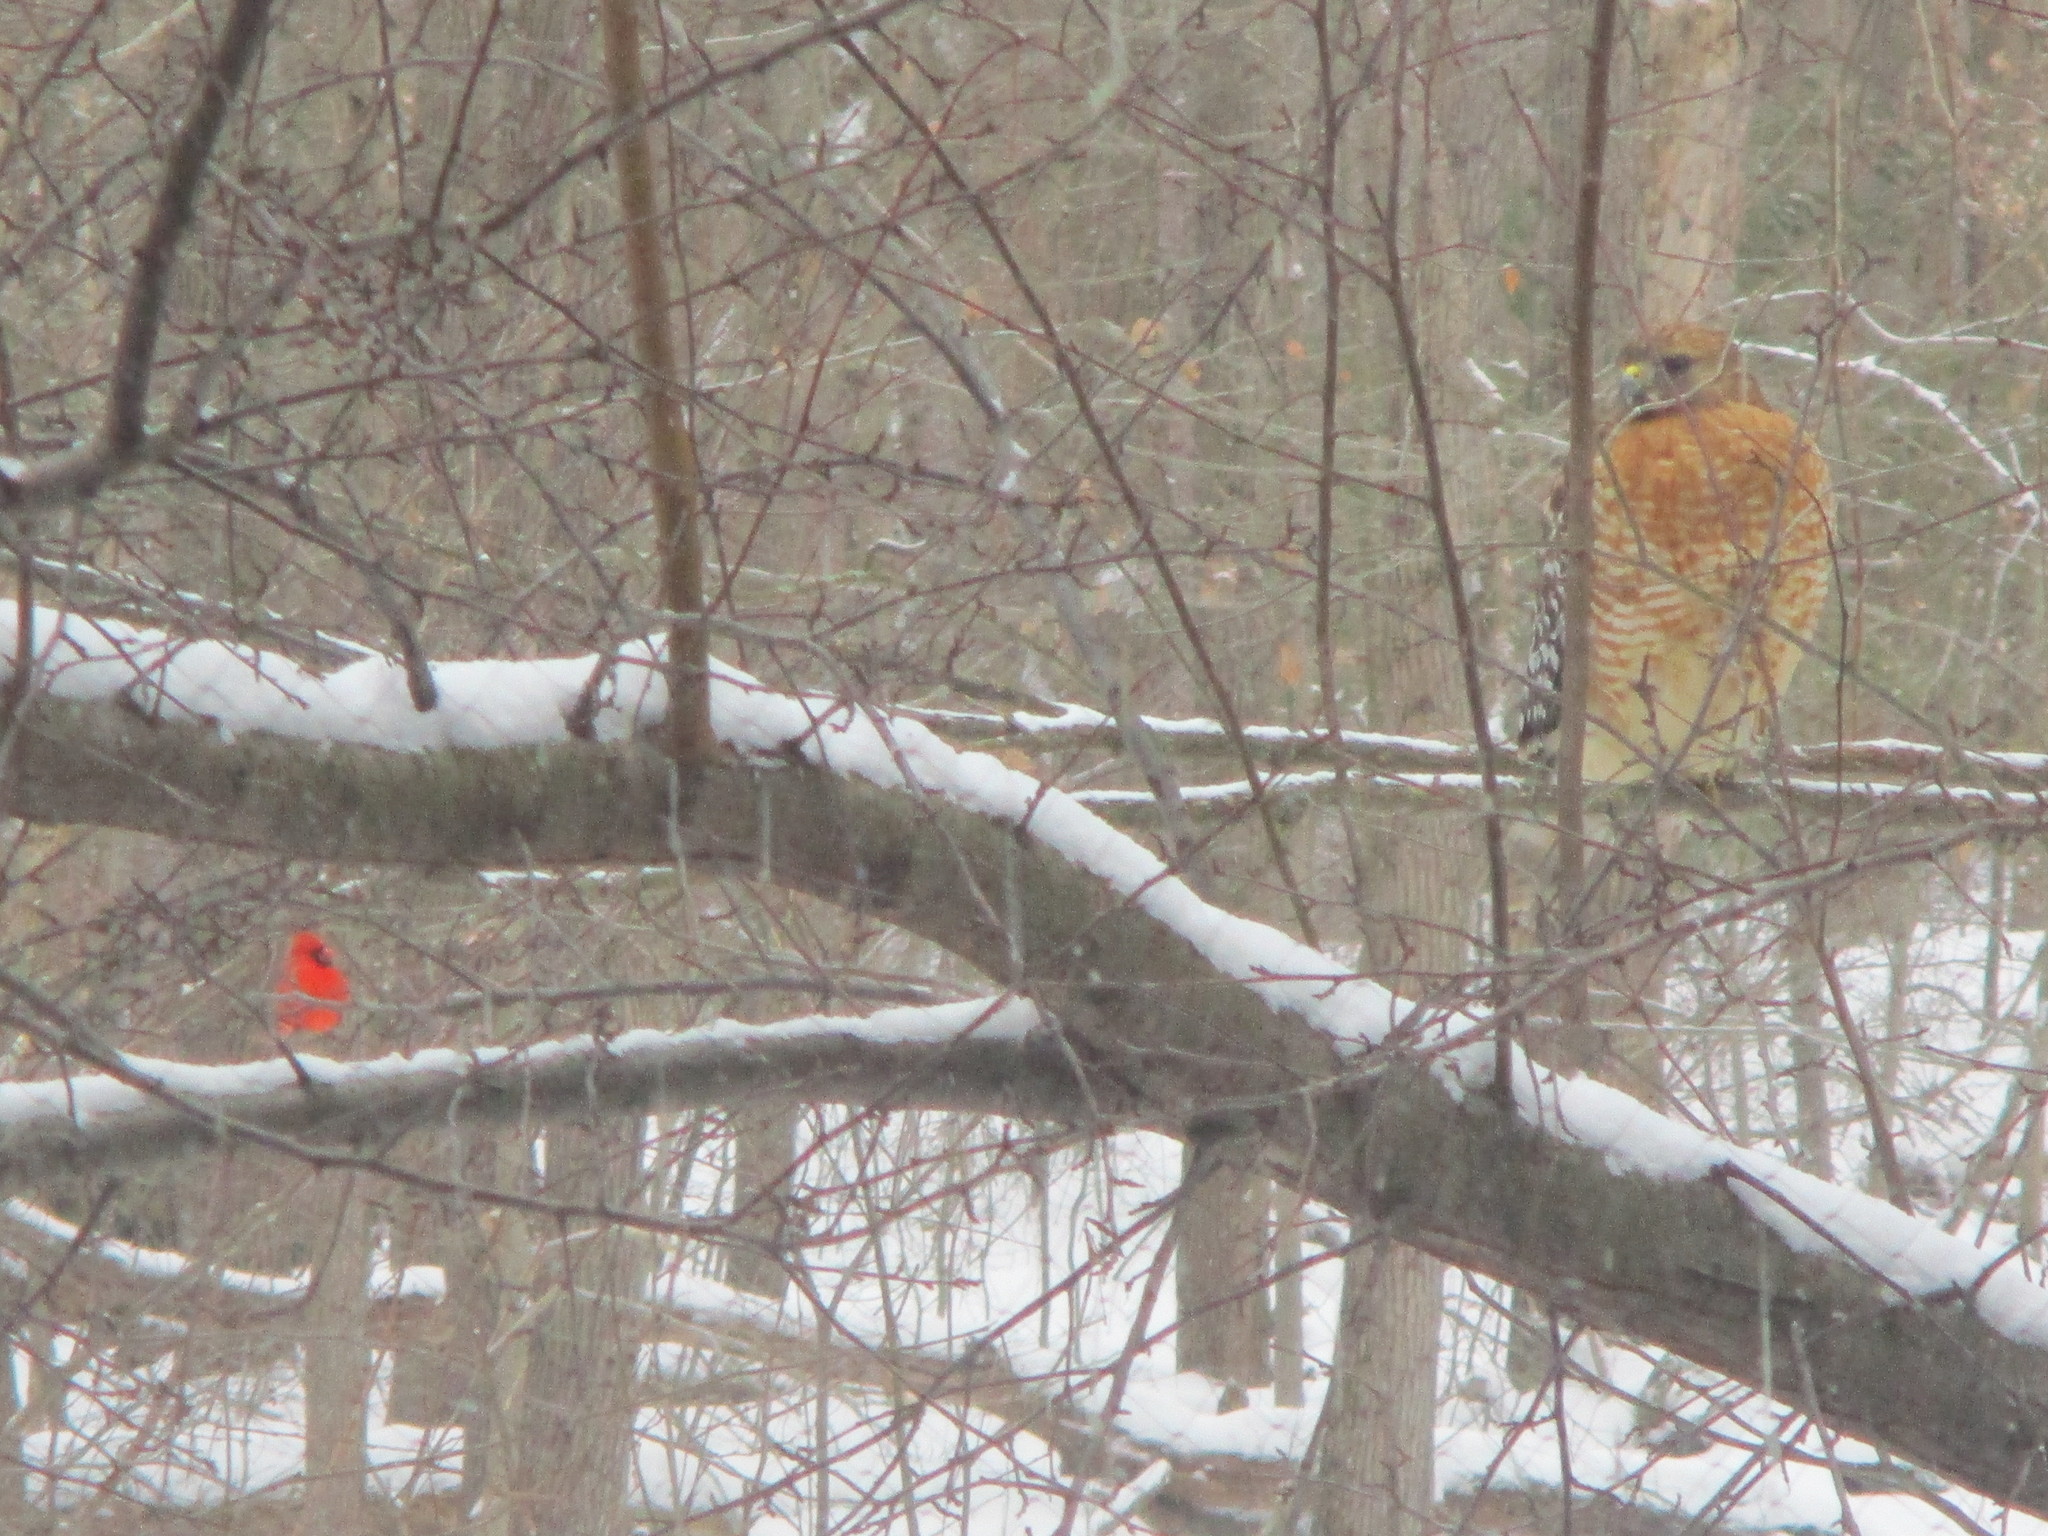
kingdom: Animalia
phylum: Chordata
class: Aves
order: Accipitriformes
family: Accipitridae
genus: Buteo
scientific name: Buteo lineatus
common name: Red-shouldered hawk
